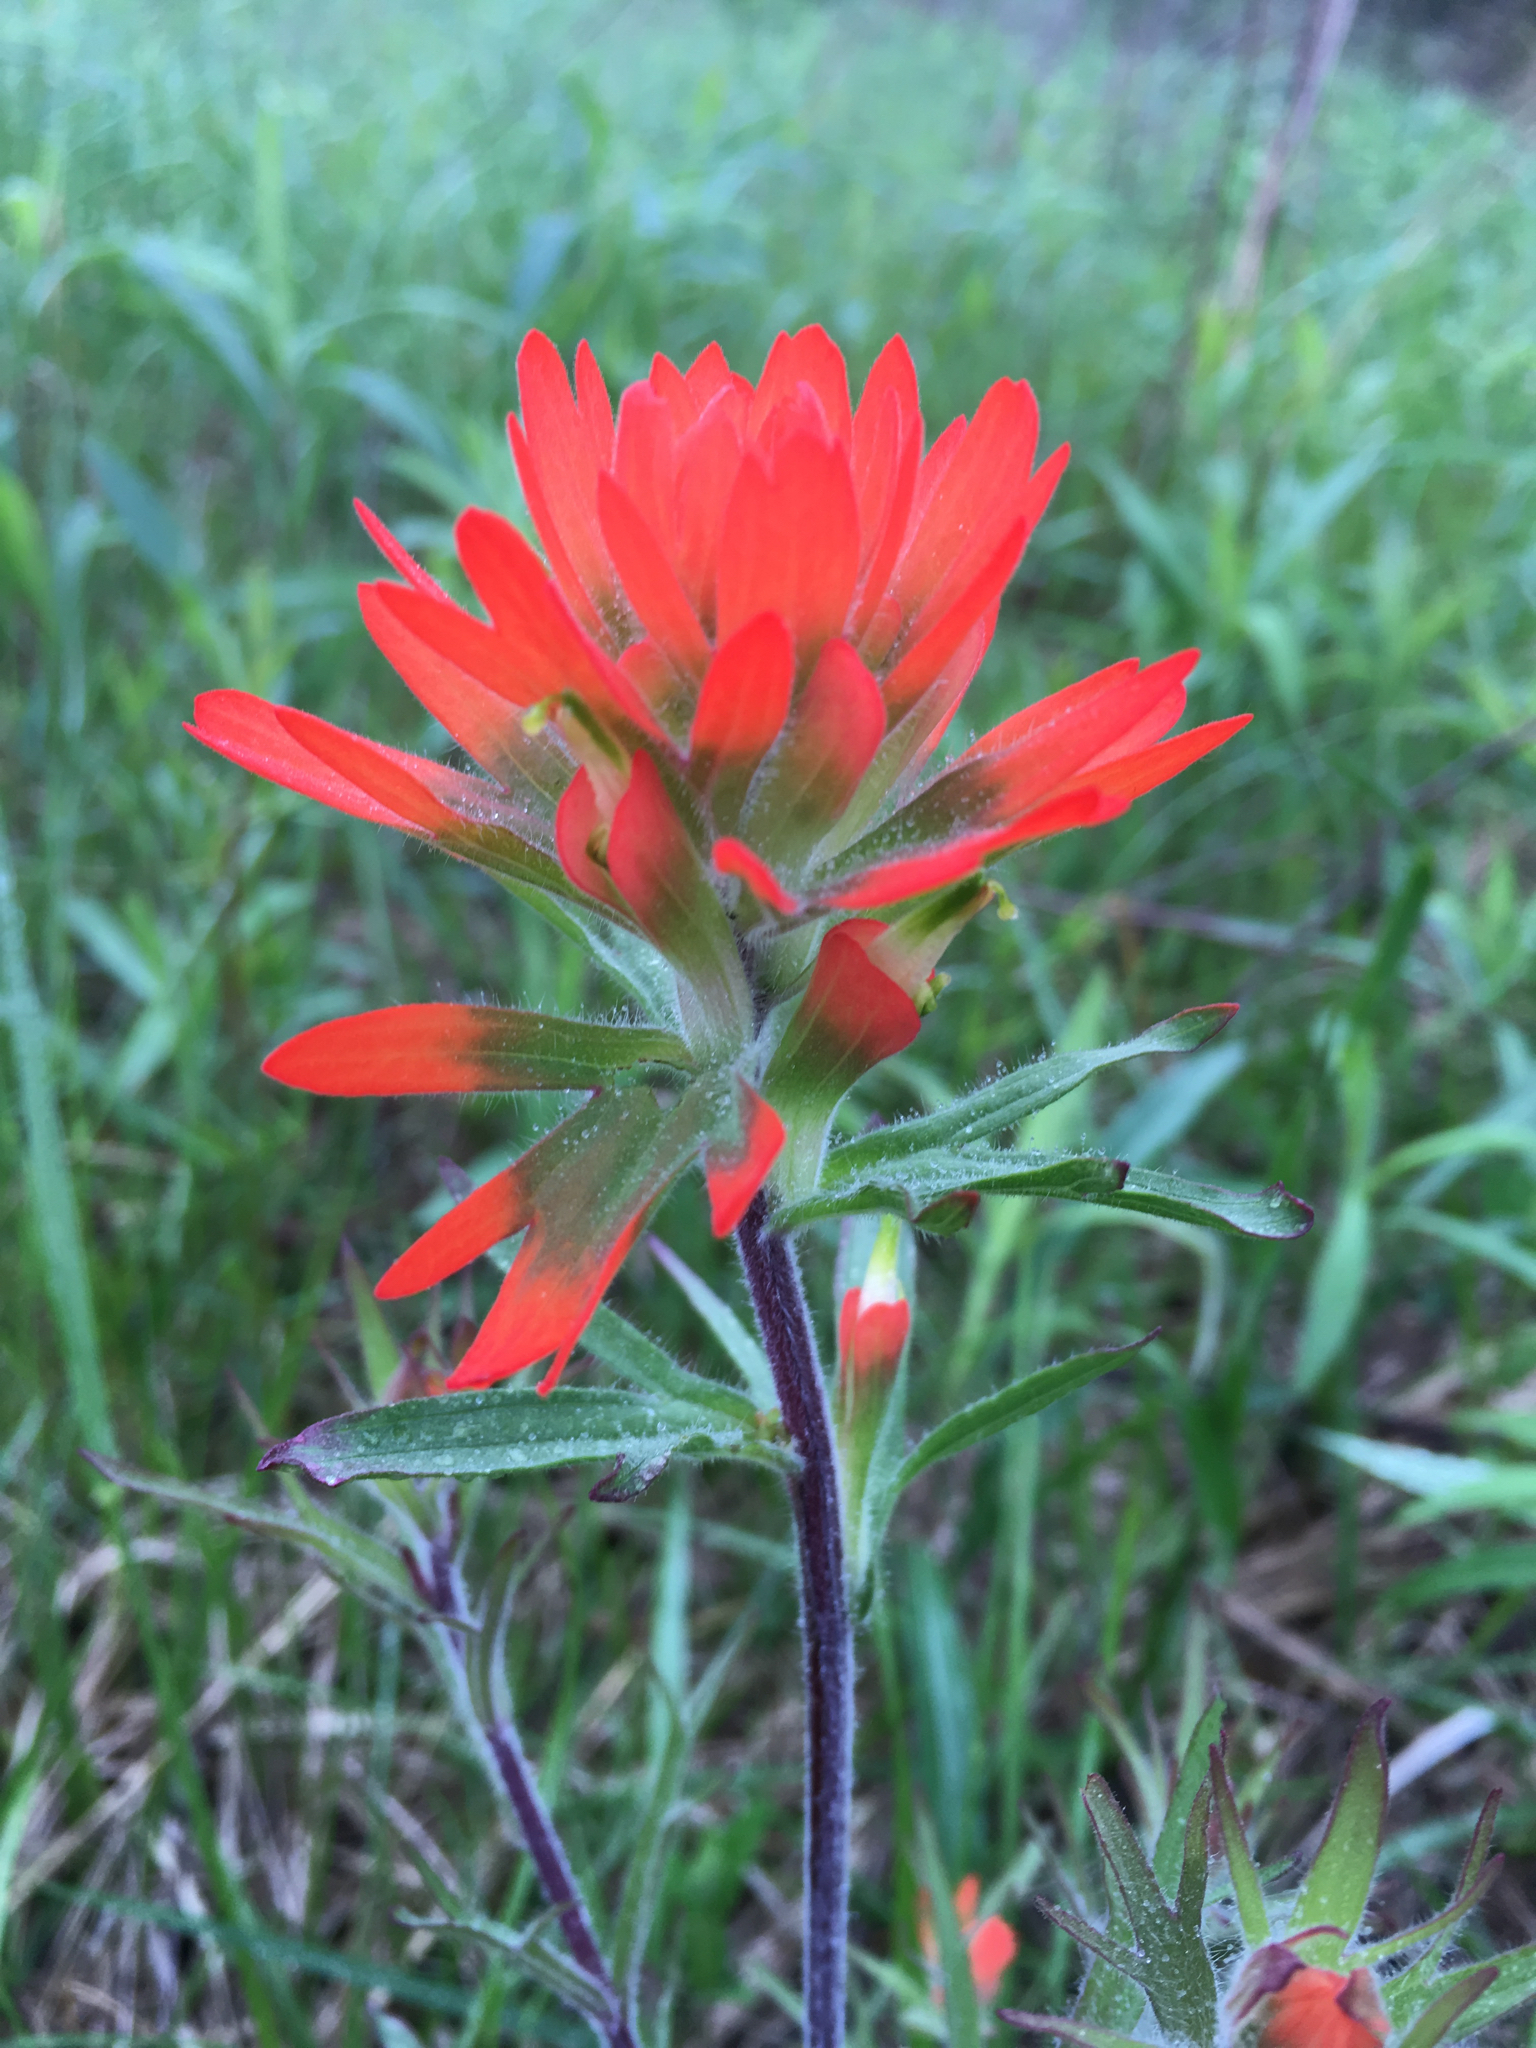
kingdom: Plantae
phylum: Tracheophyta
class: Magnoliopsida
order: Lamiales
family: Orobanchaceae
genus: Castilleja
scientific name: Castilleja coccinea
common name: Scarlet paintbrush
